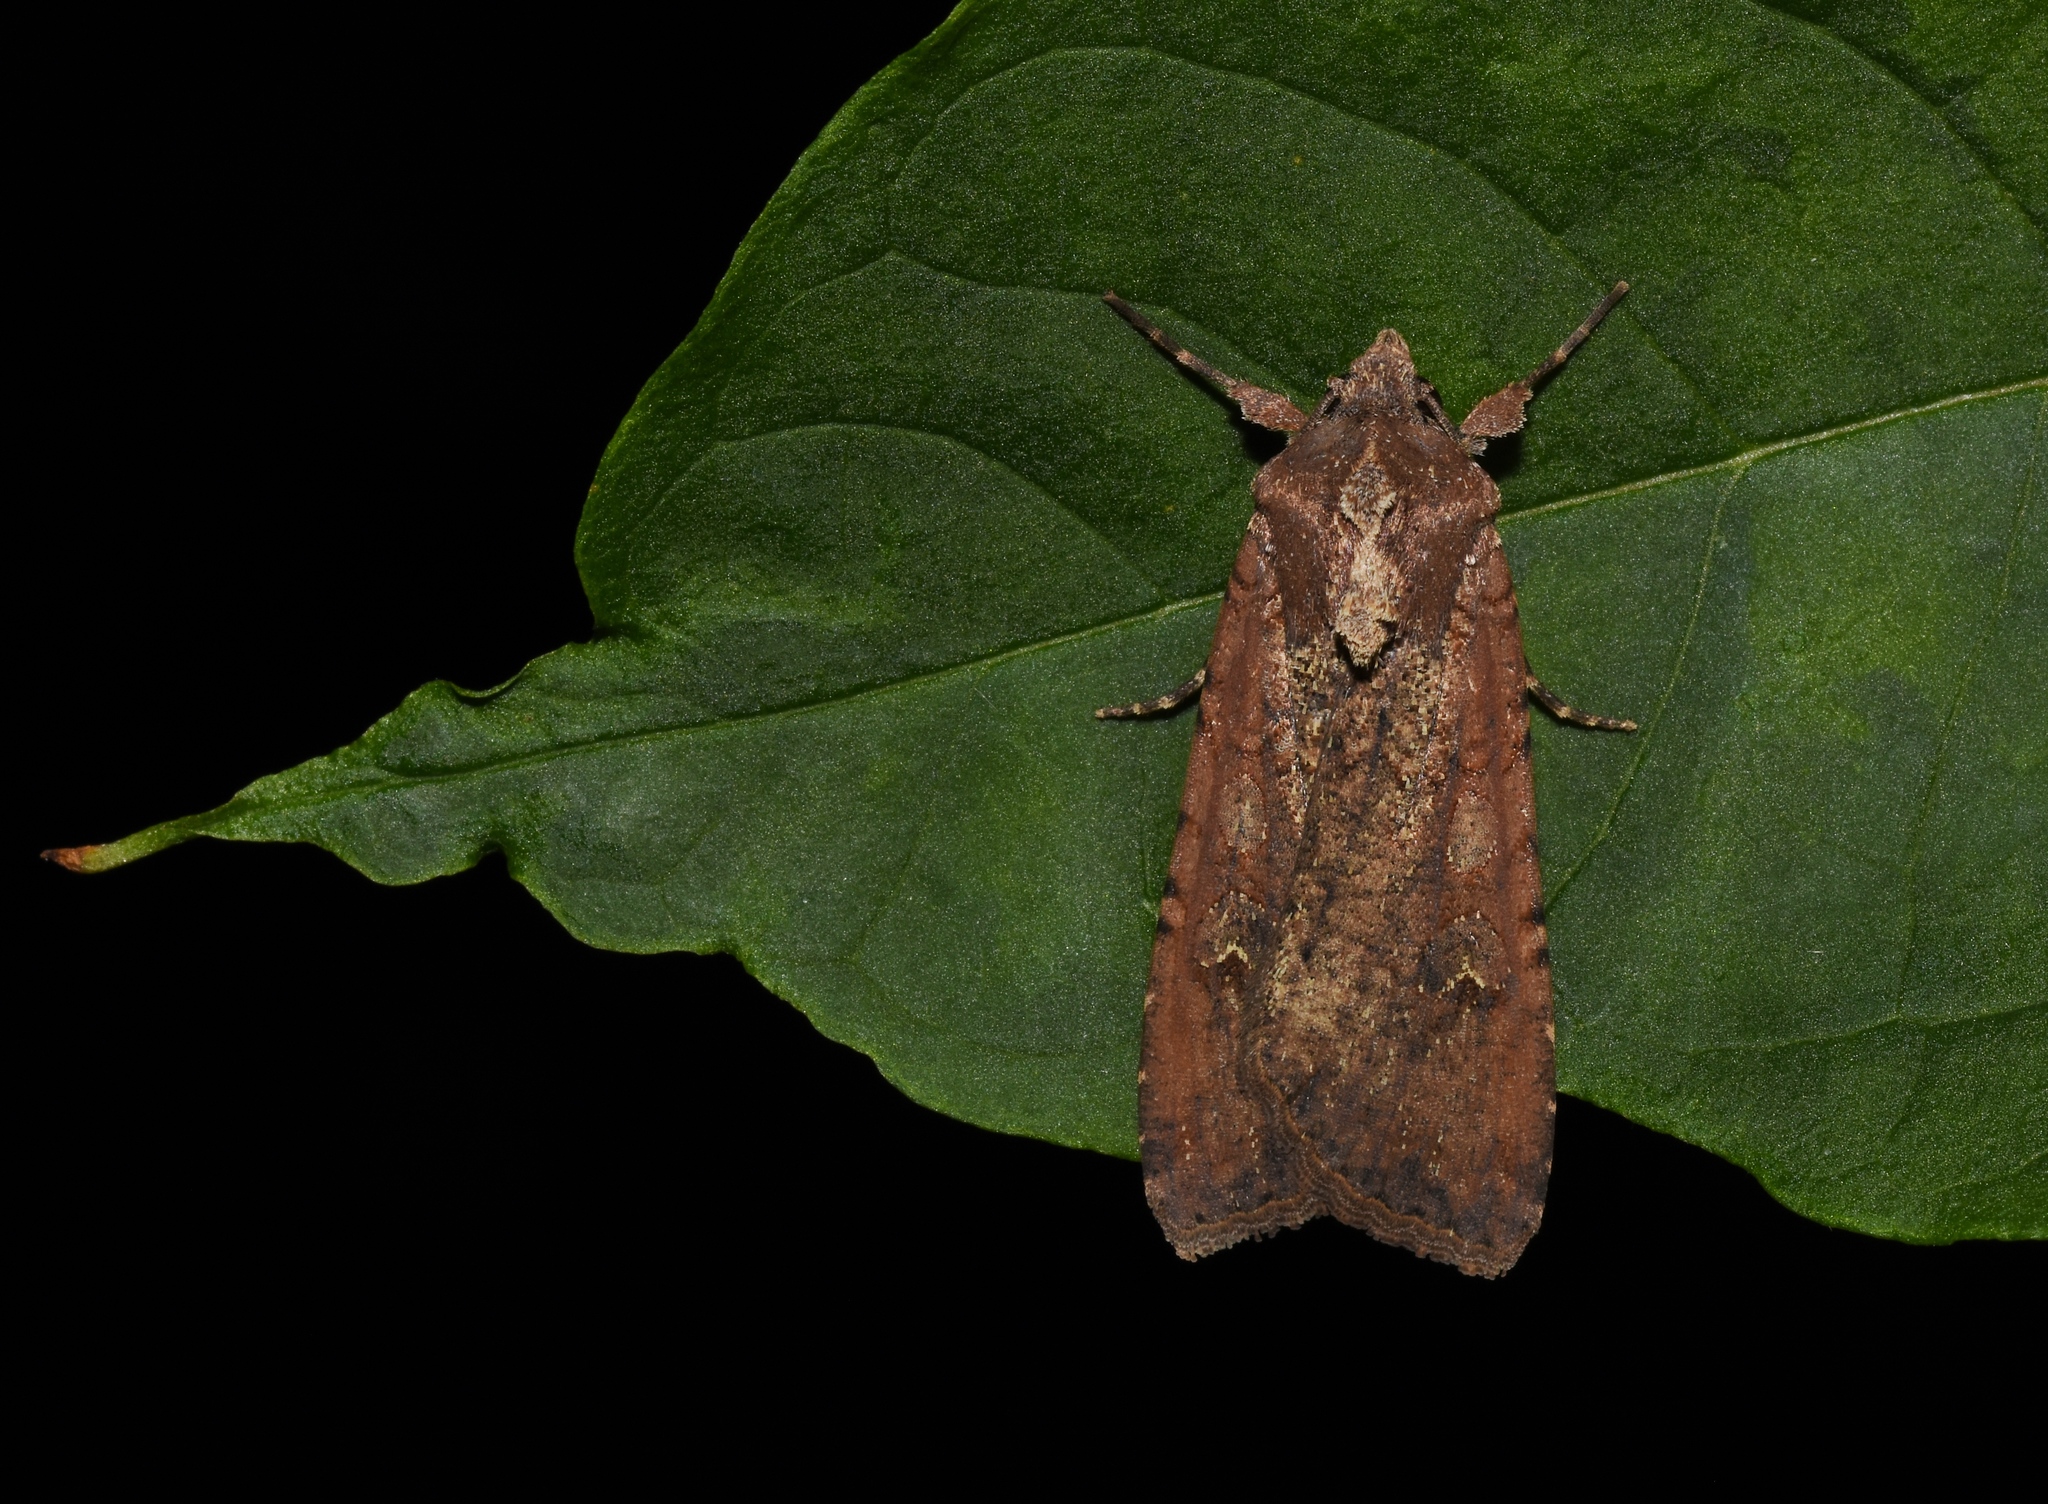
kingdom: Animalia
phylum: Arthropoda
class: Insecta
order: Lepidoptera
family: Noctuidae
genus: Peridroma
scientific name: Peridroma saucia
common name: Pearly underwing
